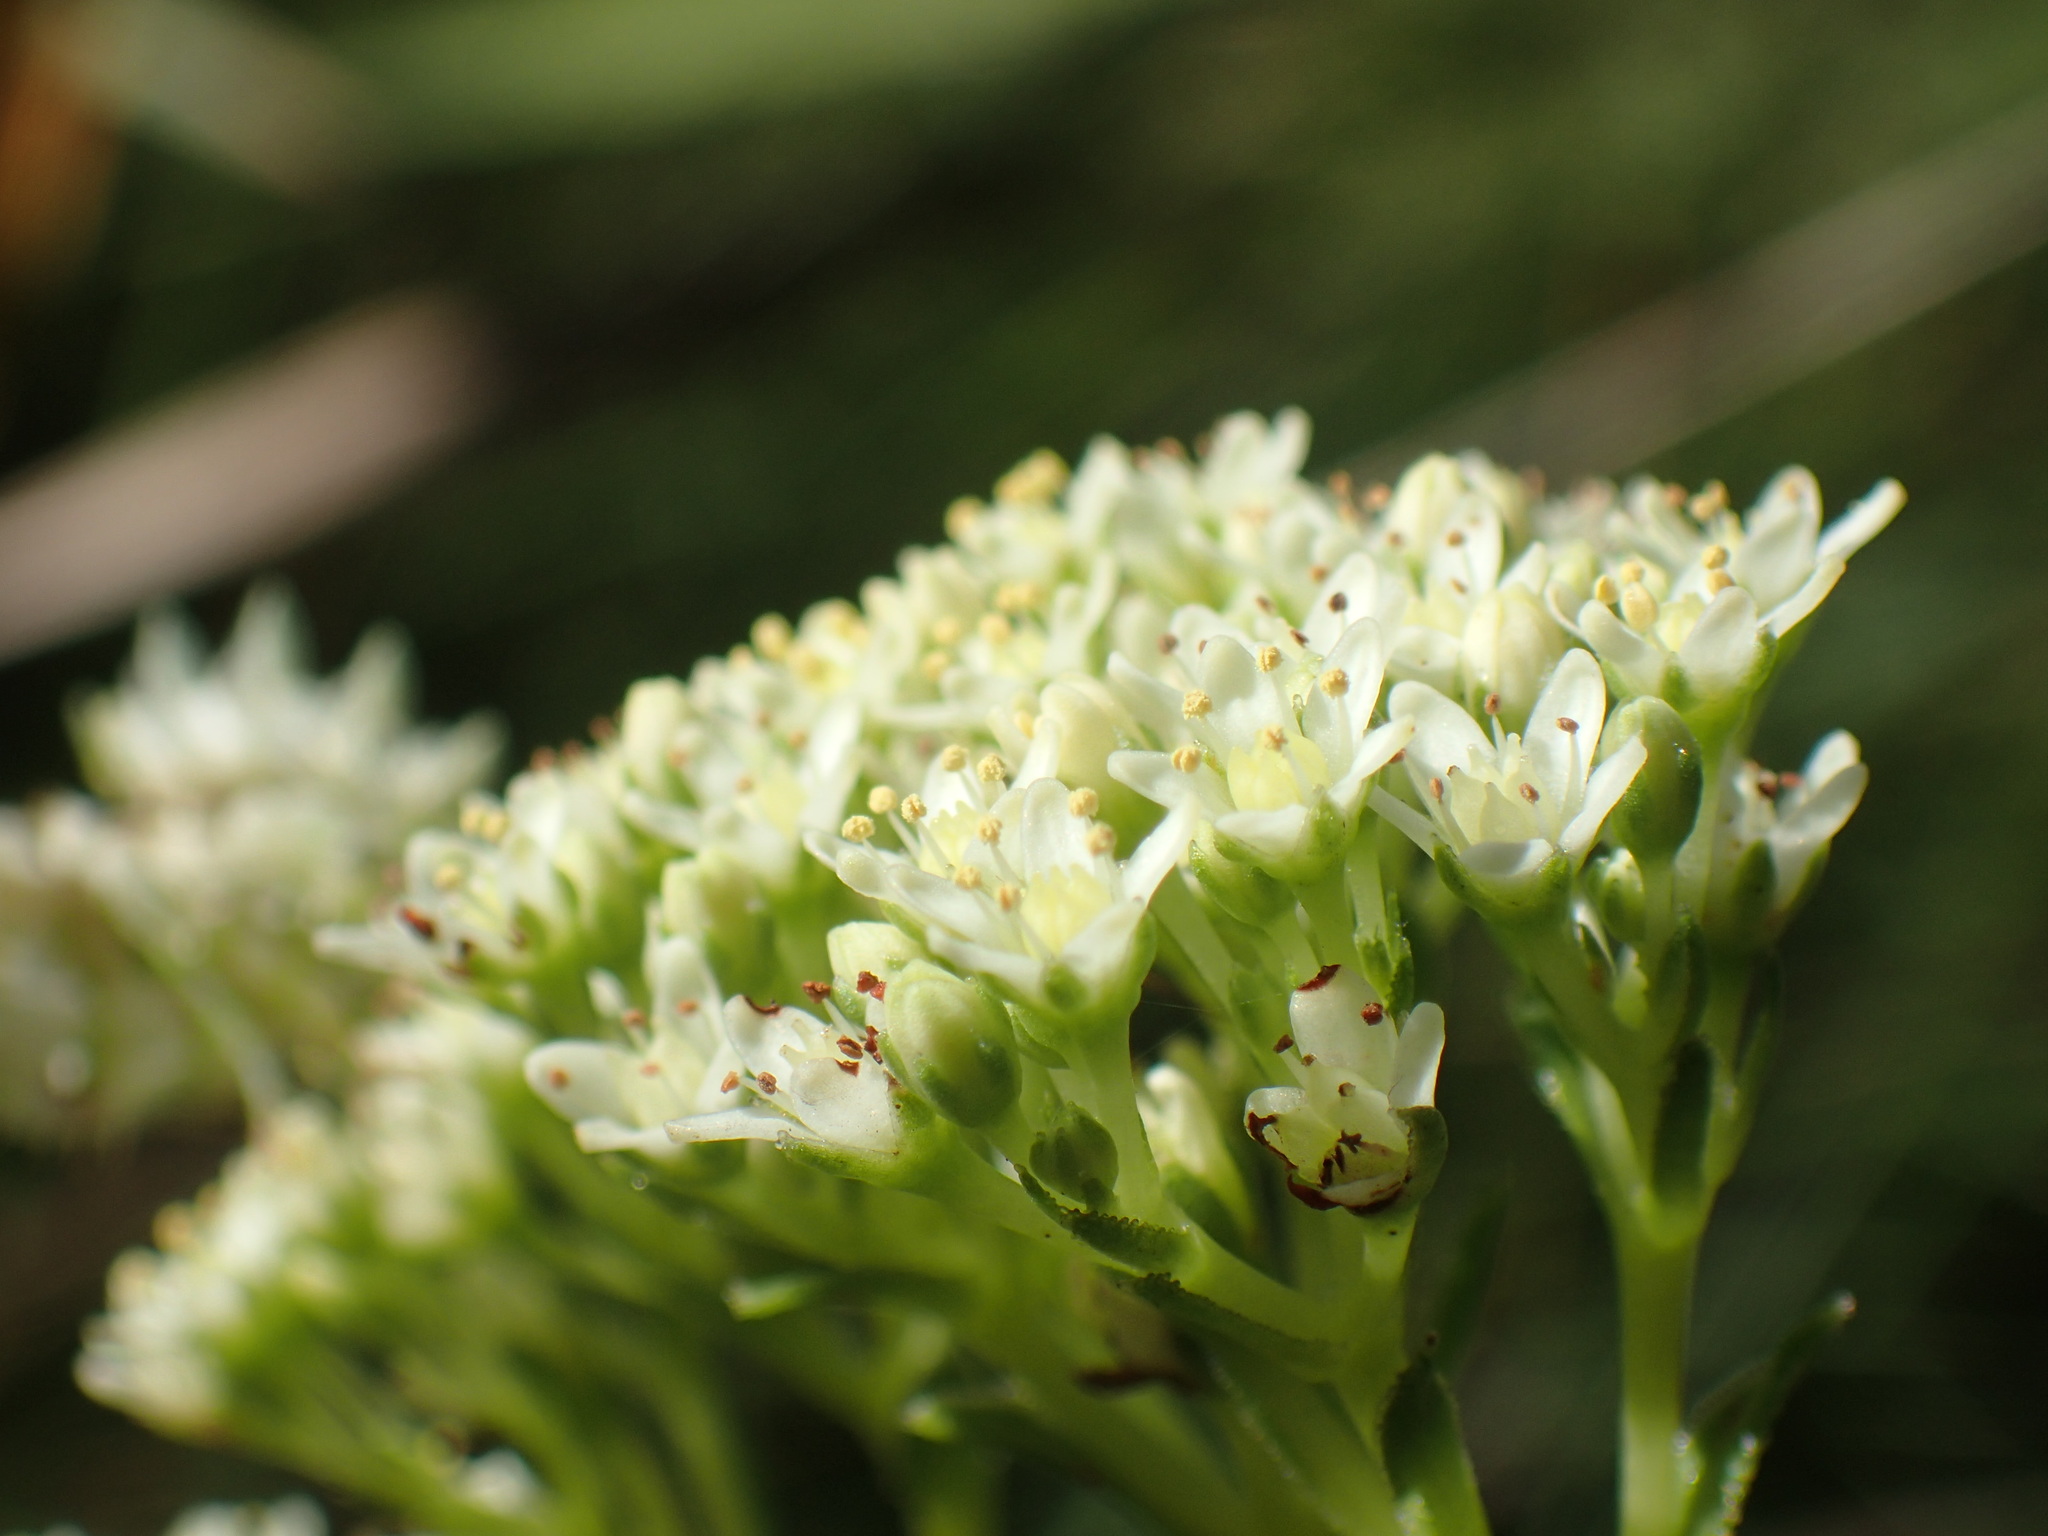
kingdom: Plantae
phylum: Tracheophyta
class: Magnoliopsida
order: Saxifragales
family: Crassulaceae
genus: Crassula
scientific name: Crassula vaginata
